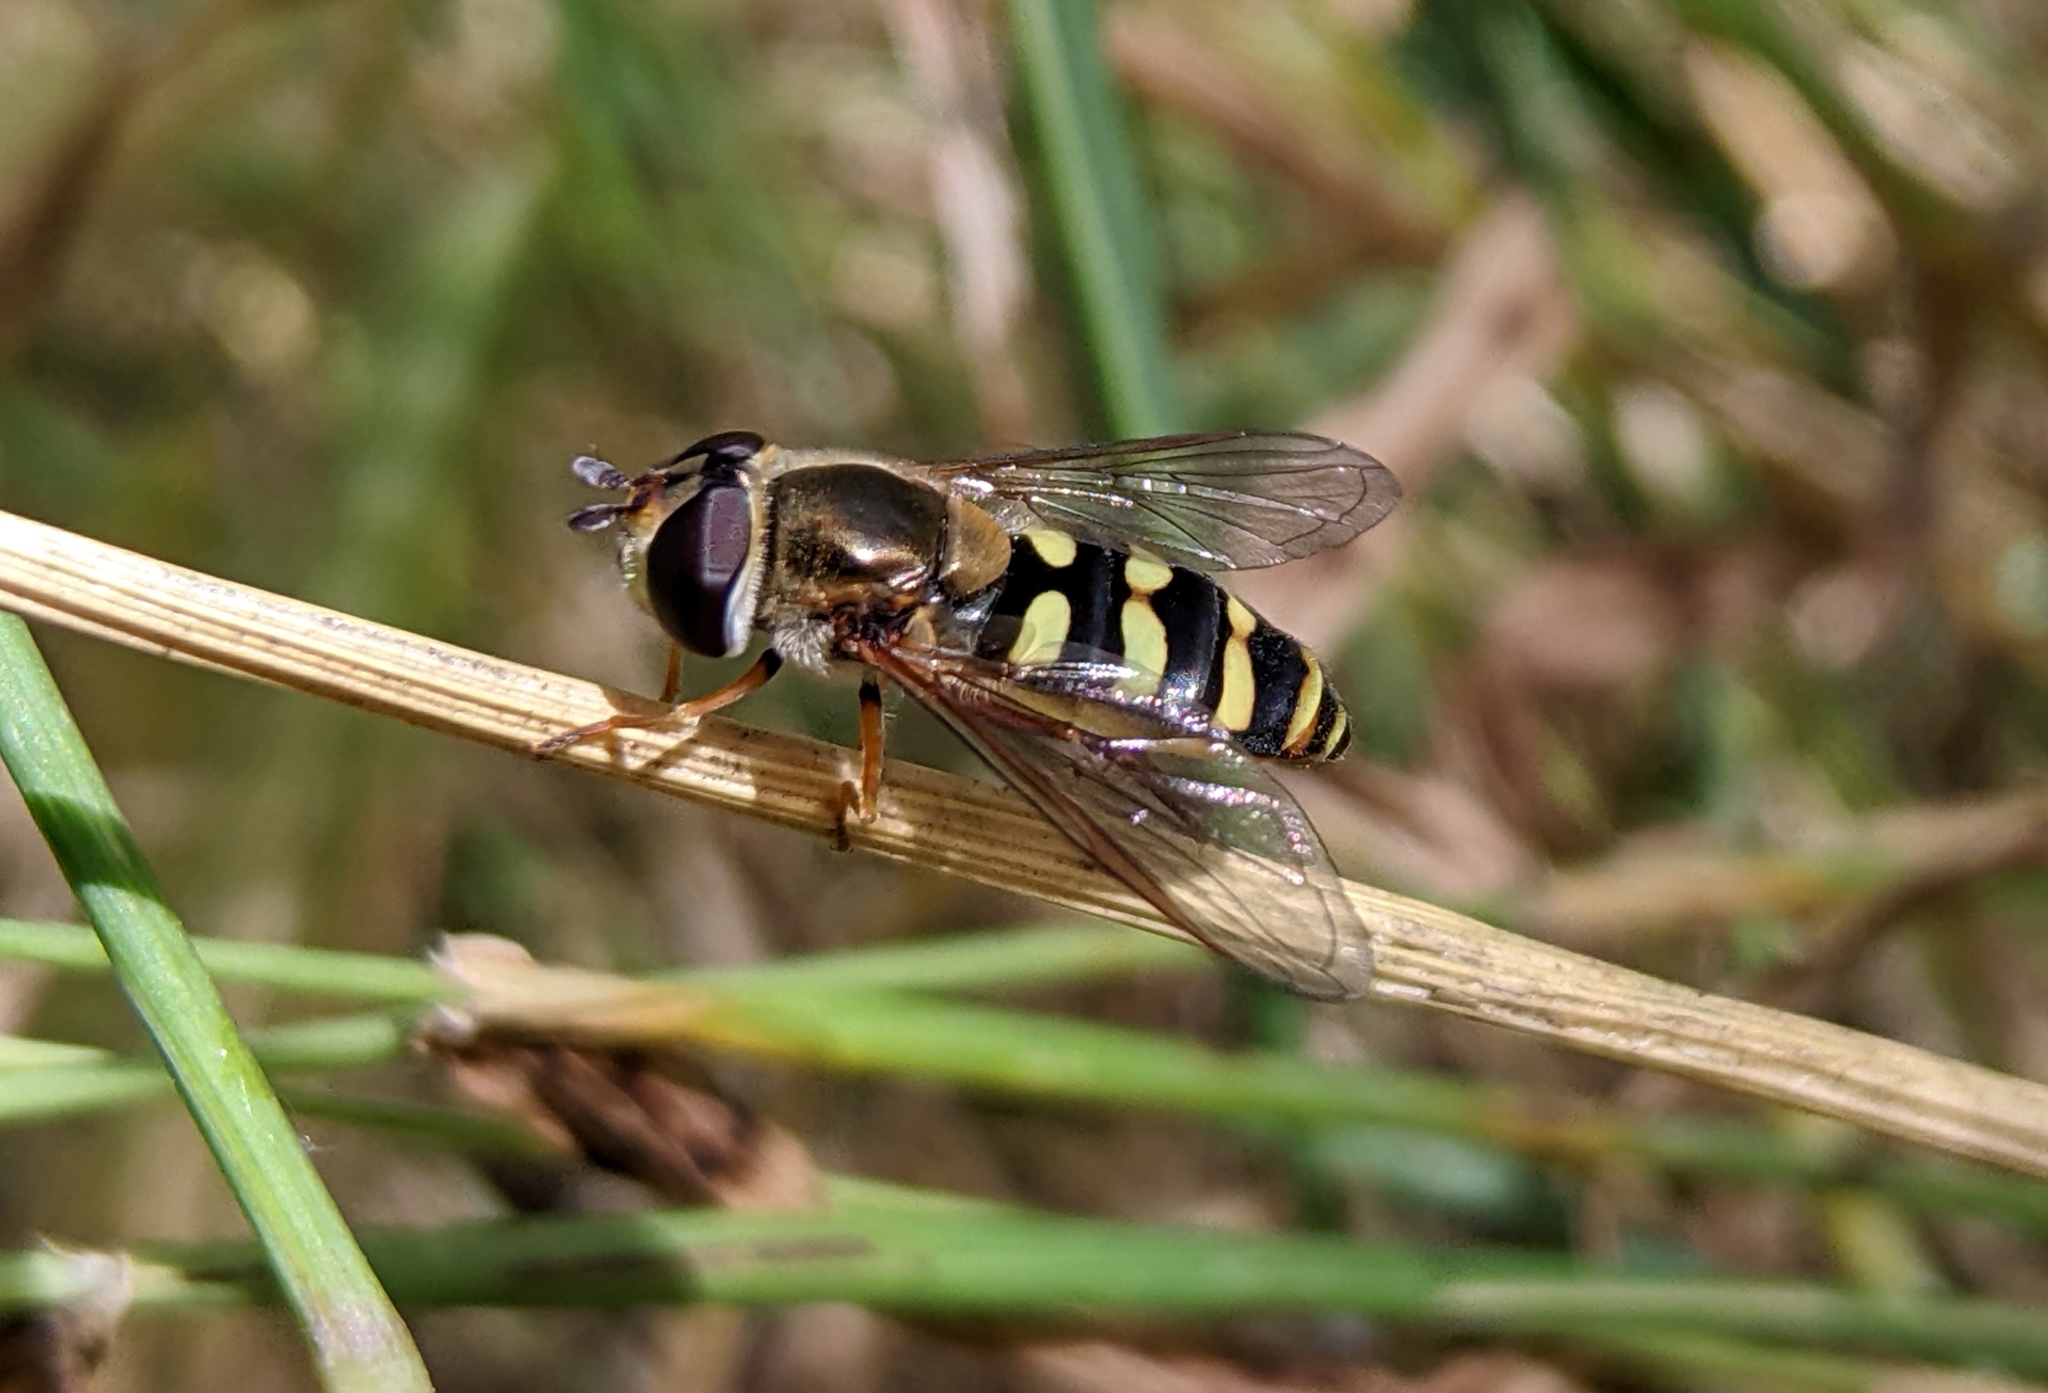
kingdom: Animalia
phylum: Arthropoda
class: Insecta
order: Diptera
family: Syrphidae
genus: Eupeodes
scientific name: Eupeodes fumipennis
